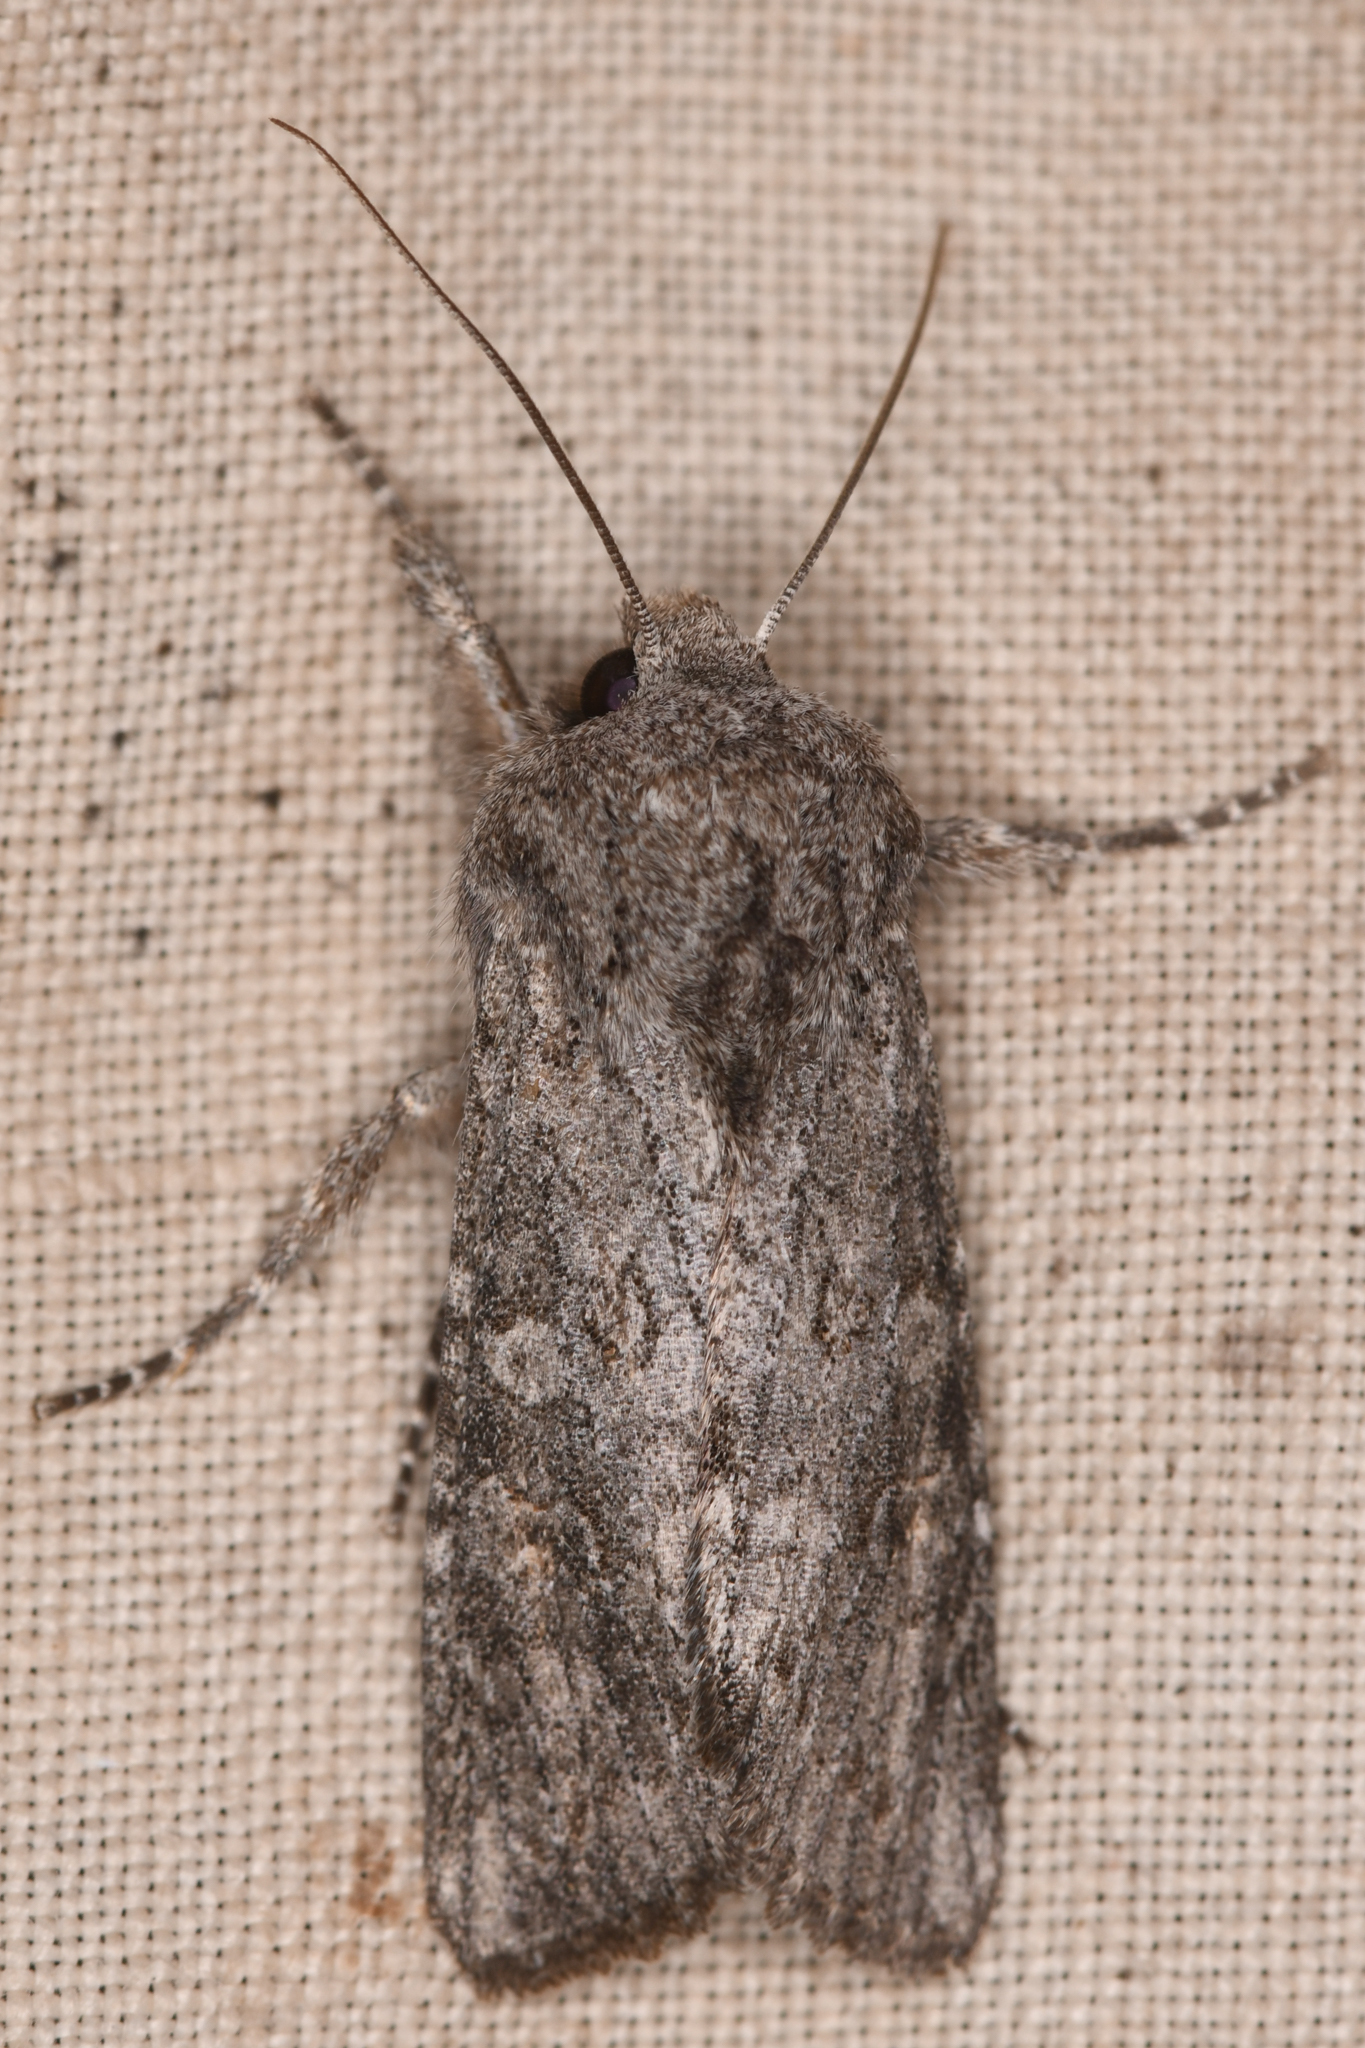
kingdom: Animalia
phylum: Arthropoda
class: Insecta
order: Lepidoptera
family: Noctuidae
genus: Egira
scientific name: Egira curialis
